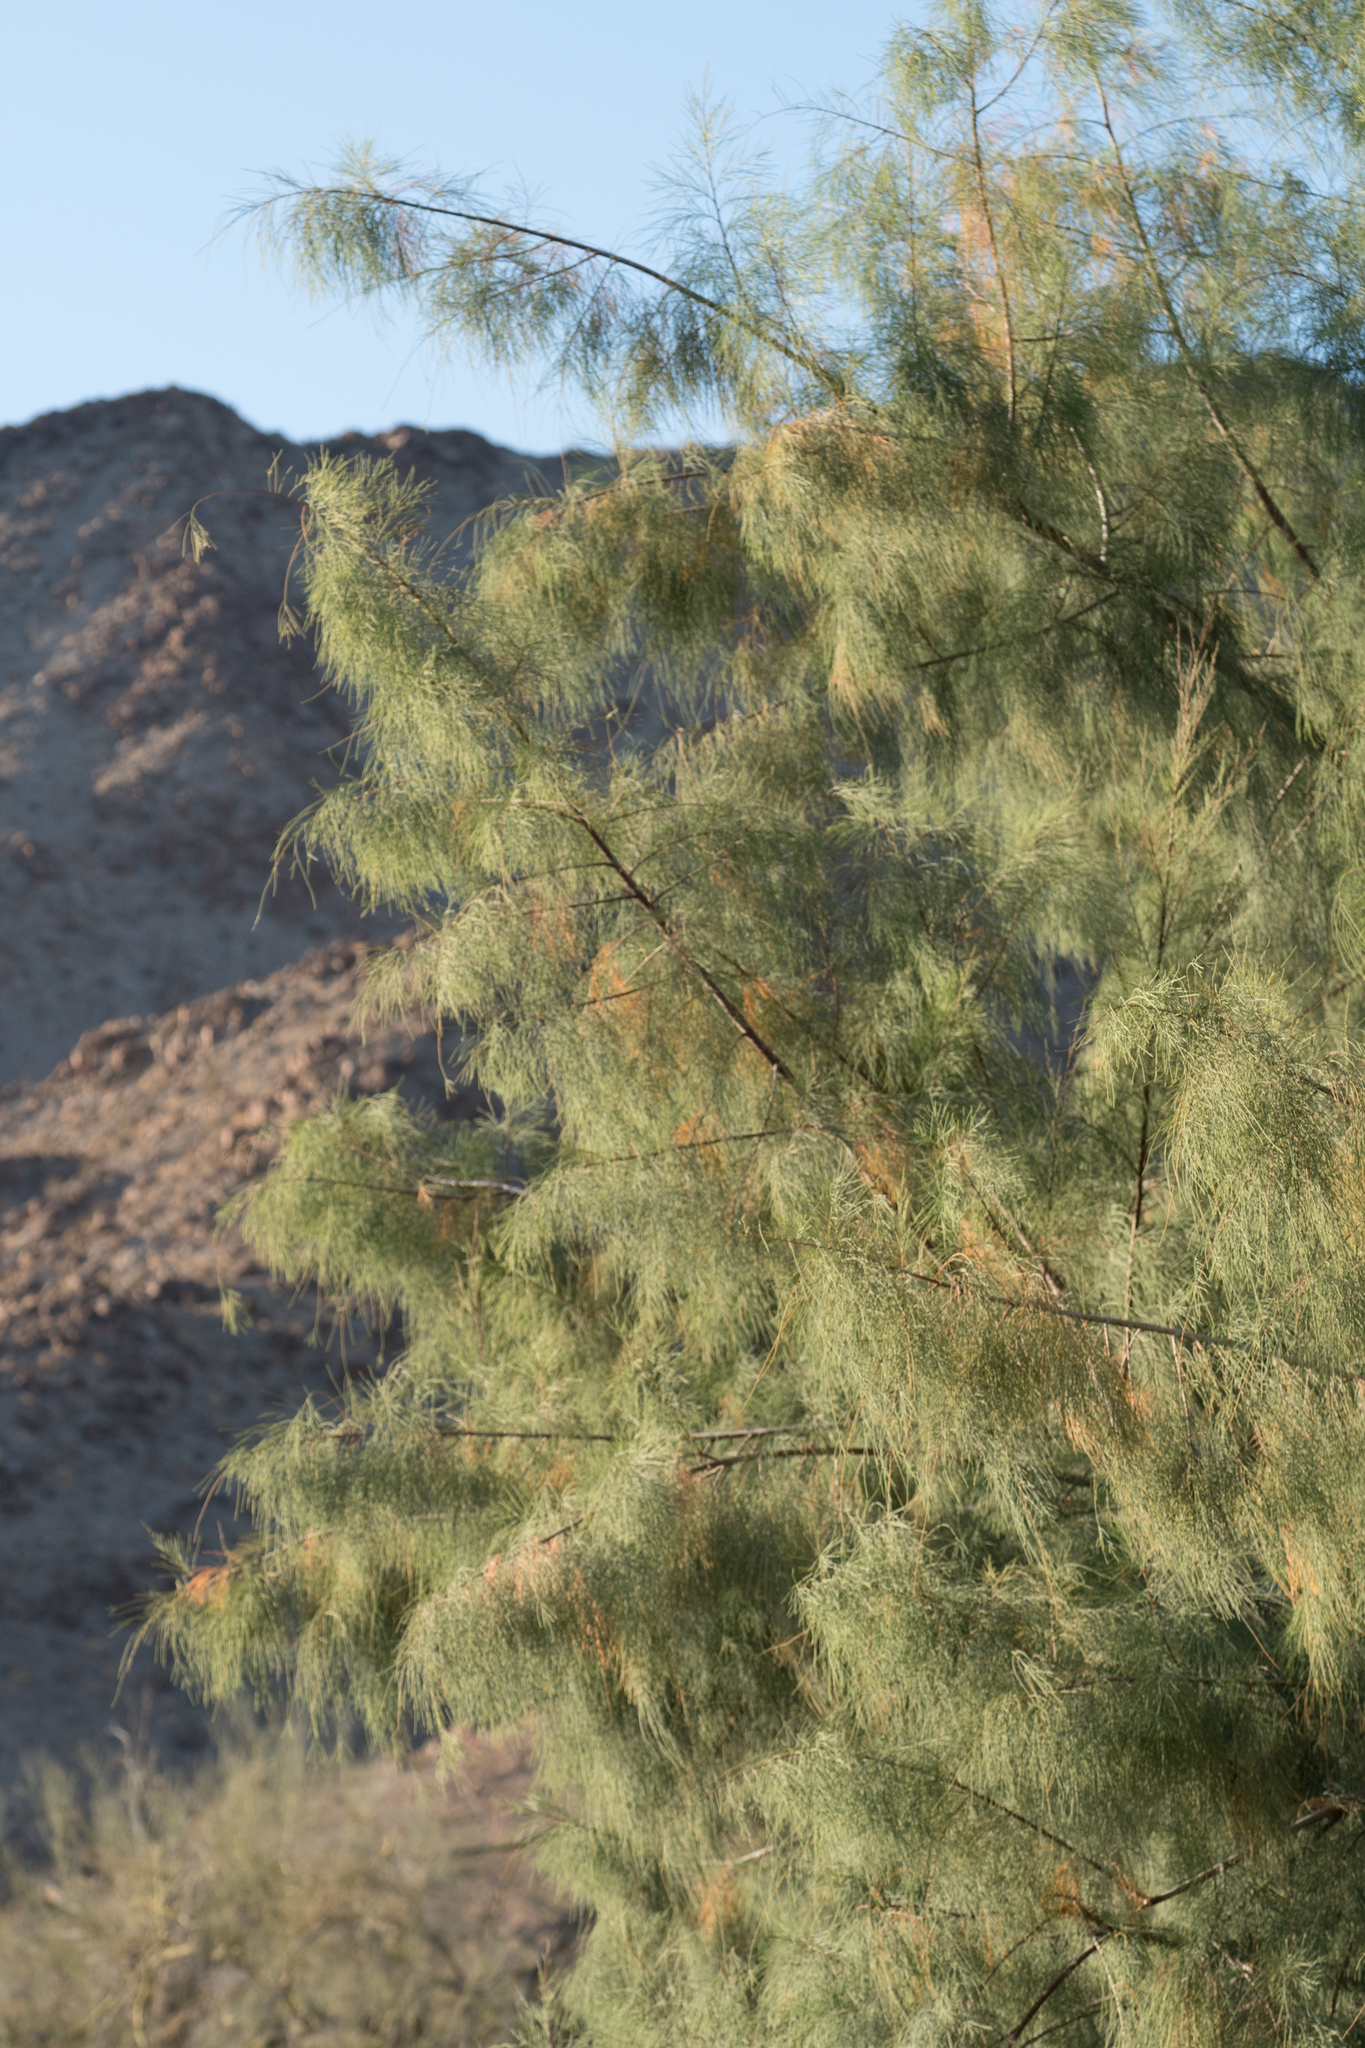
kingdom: Plantae
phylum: Tracheophyta
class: Magnoliopsida
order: Caryophyllales
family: Tamaricaceae
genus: Tamarix
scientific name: Tamarix aphylla
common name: Athel tamarisk
